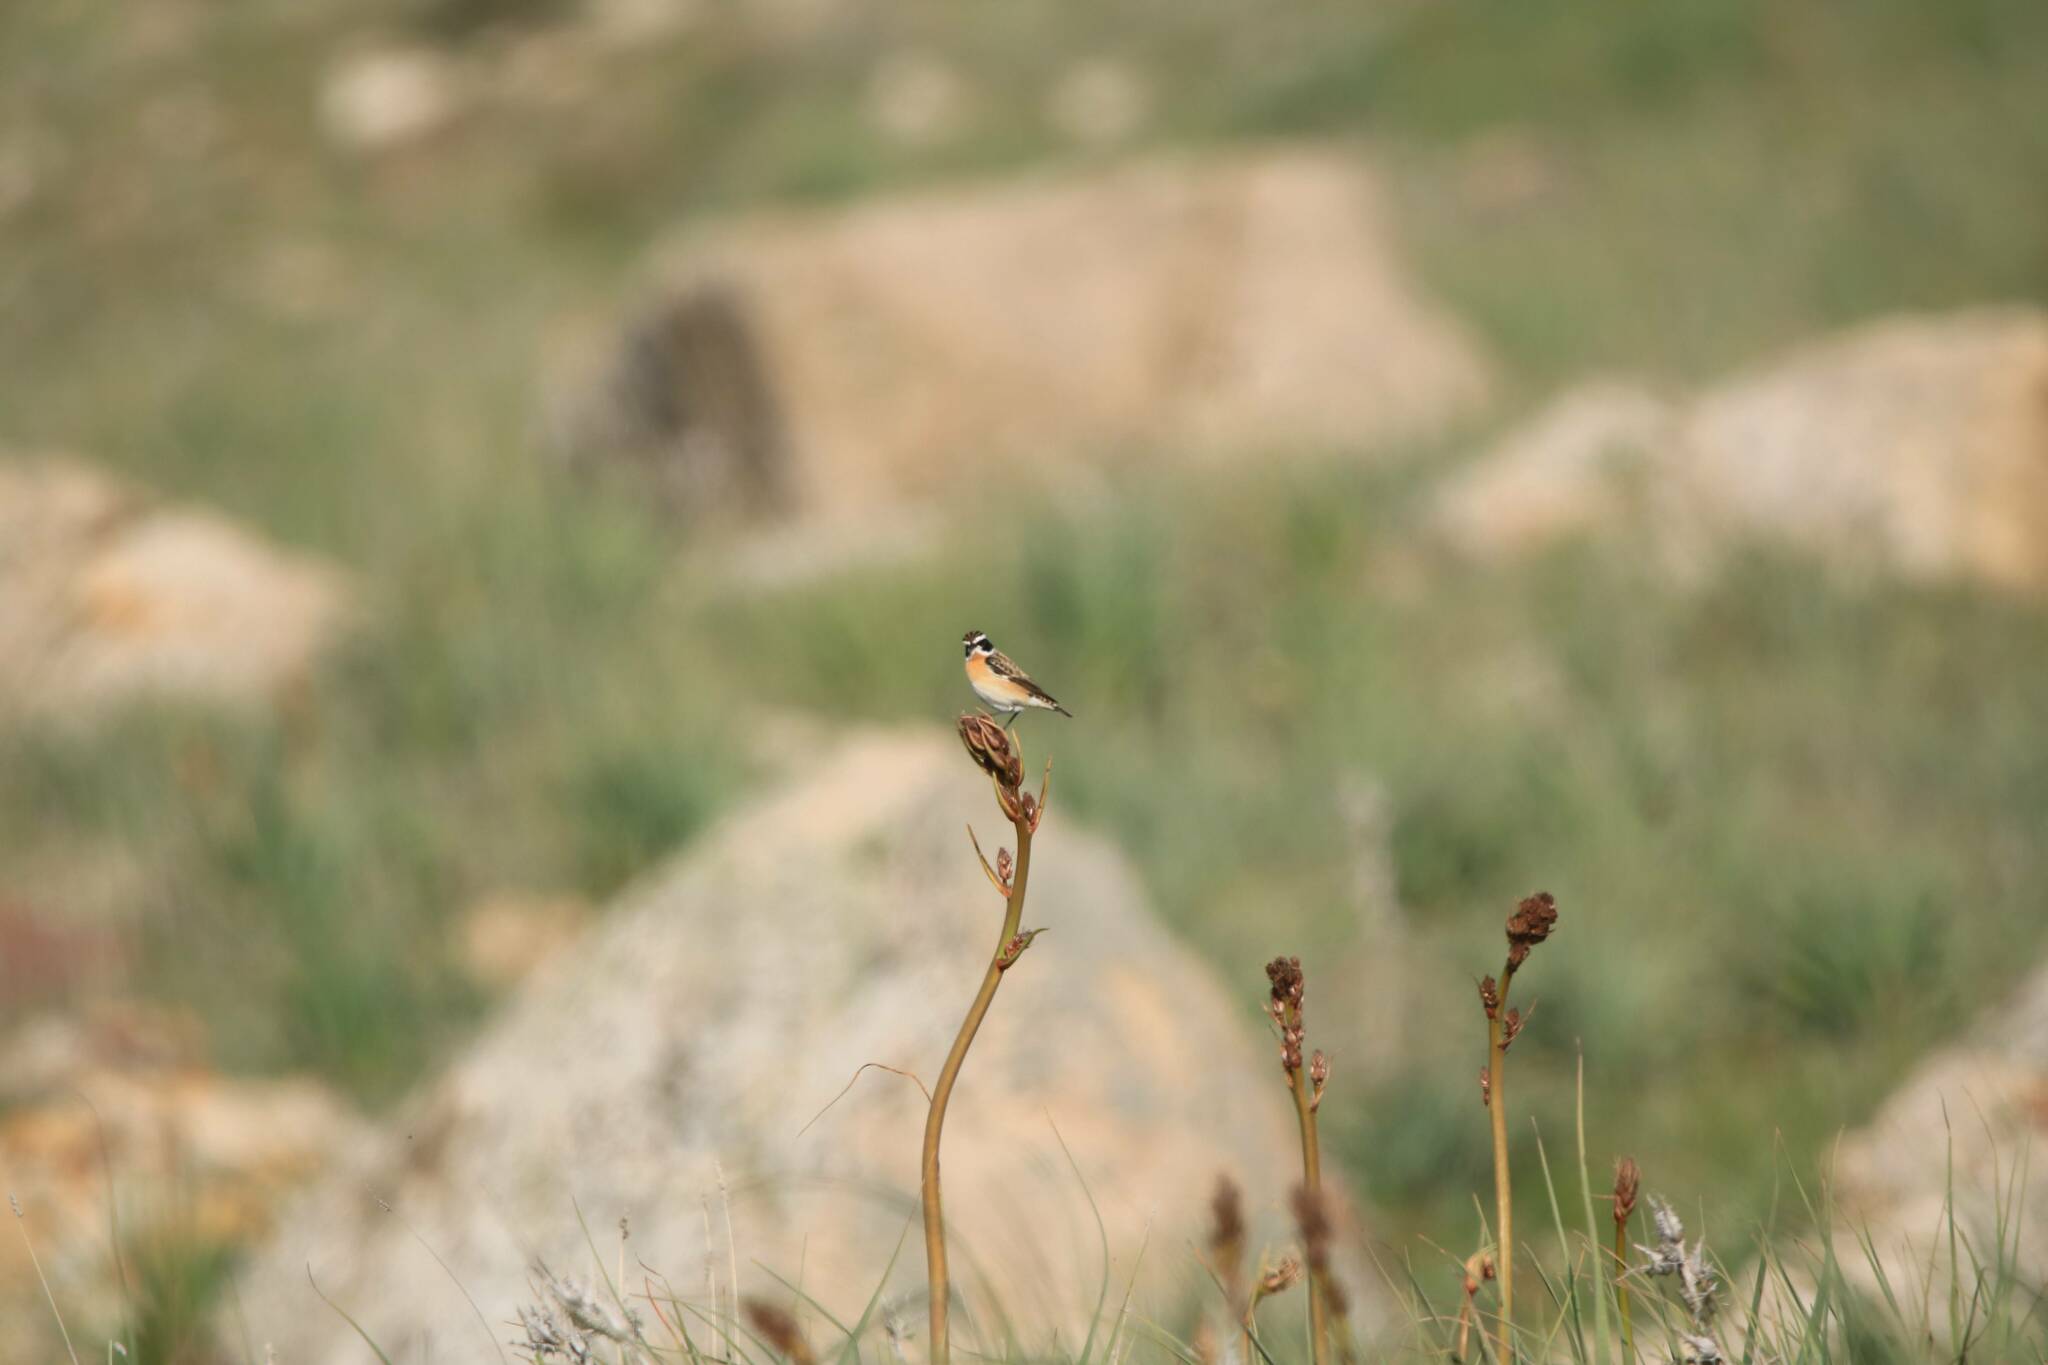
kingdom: Animalia
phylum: Chordata
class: Aves
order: Passeriformes
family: Muscicapidae
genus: Saxicola
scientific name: Saxicola rubetra
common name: Whinchat
